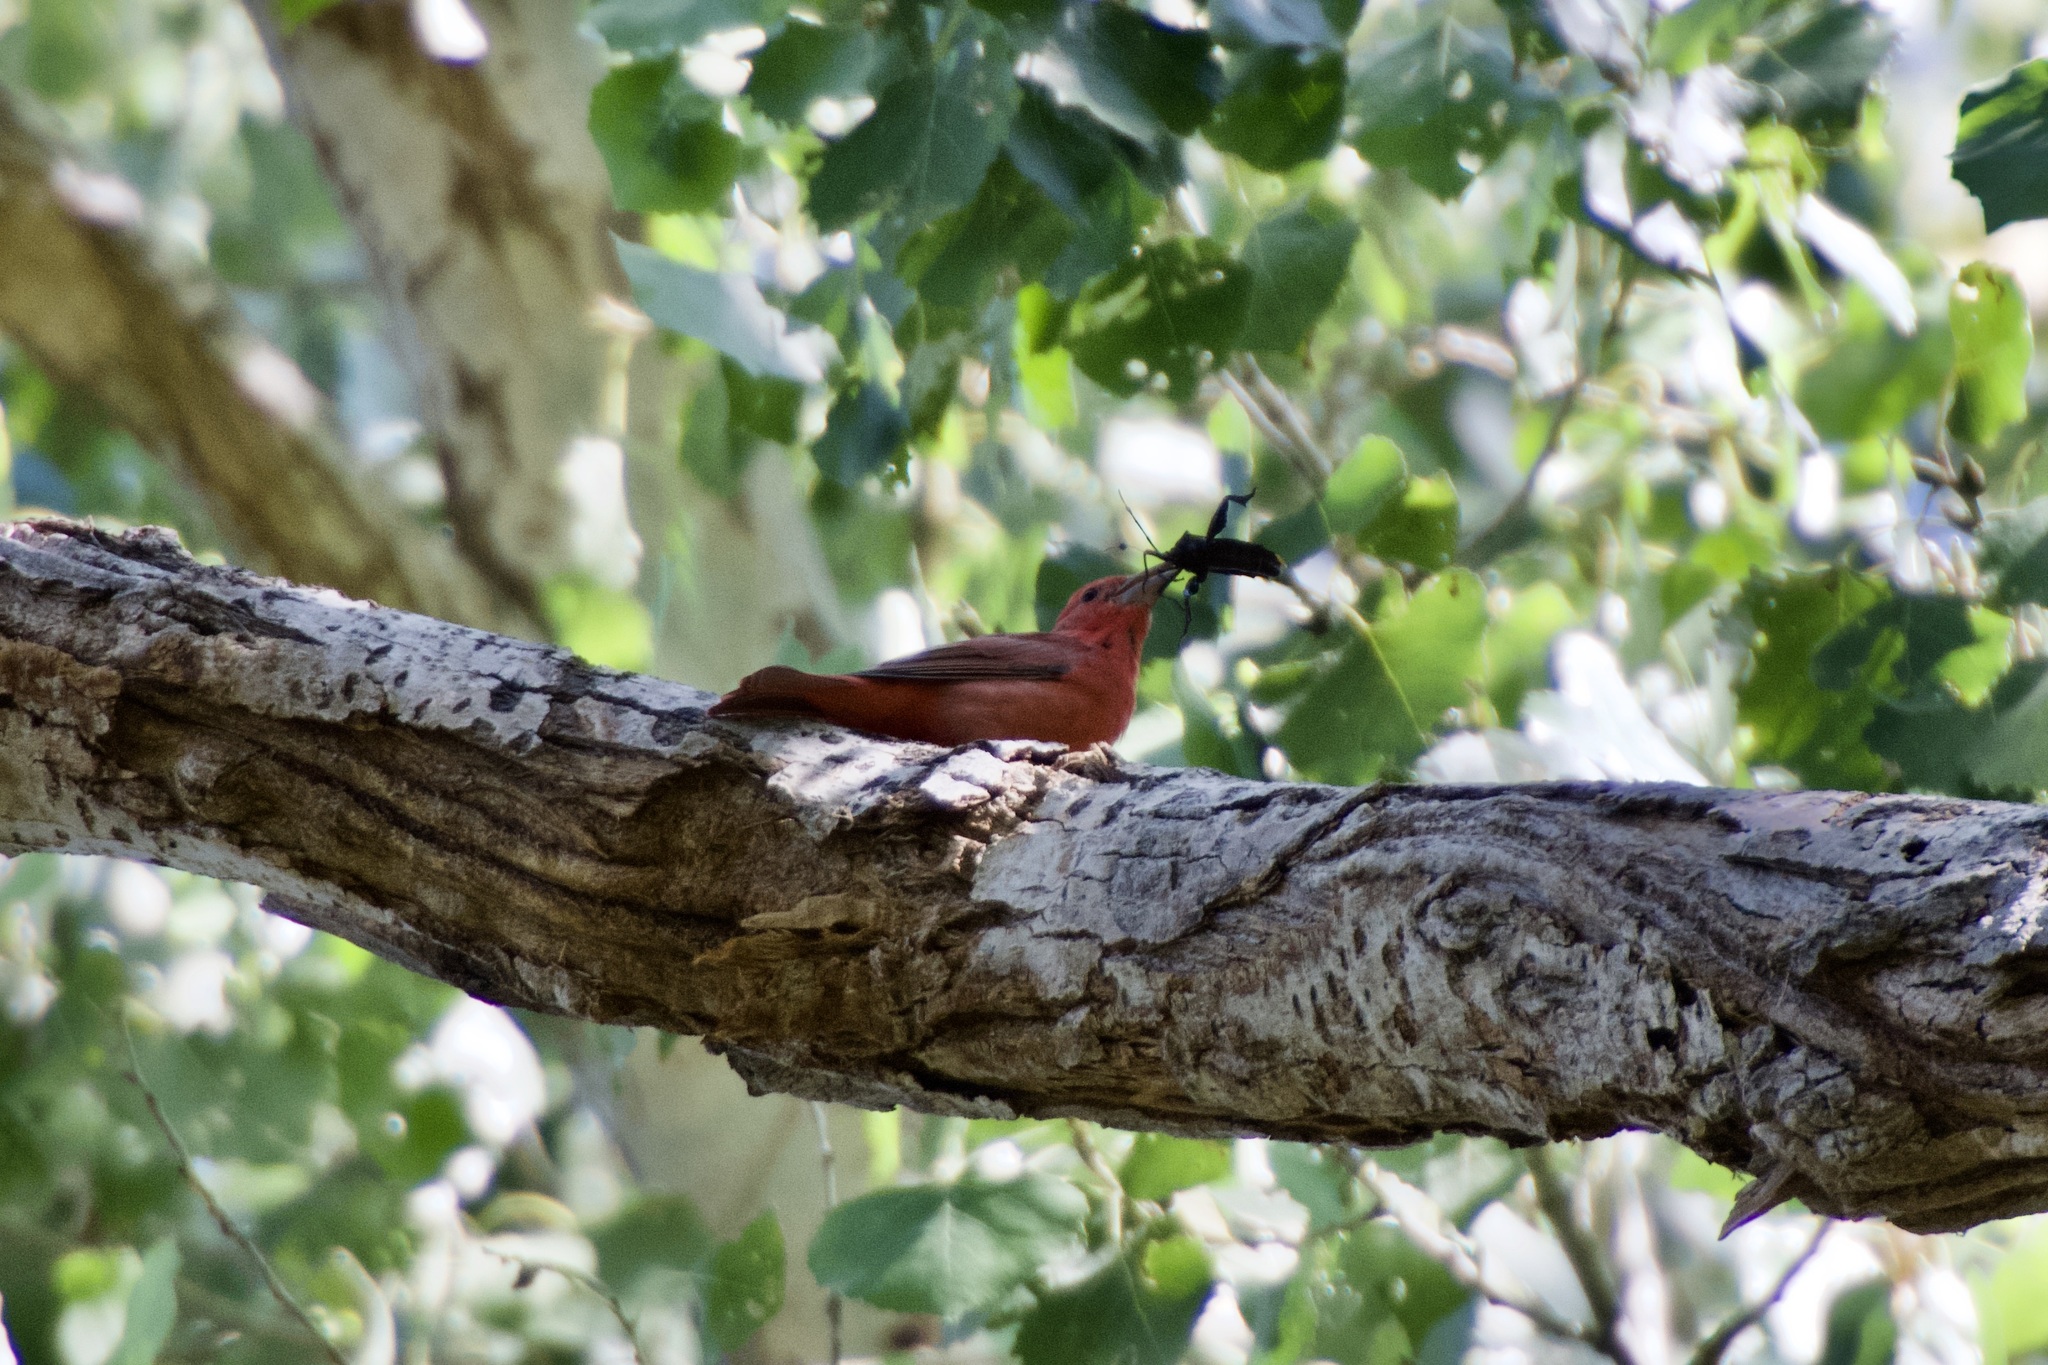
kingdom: Animalia
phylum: Chordata
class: Aves
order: Passeriformes
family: Cardinalidae
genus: Piranga
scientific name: Piranga rubra
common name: Summer tanager
